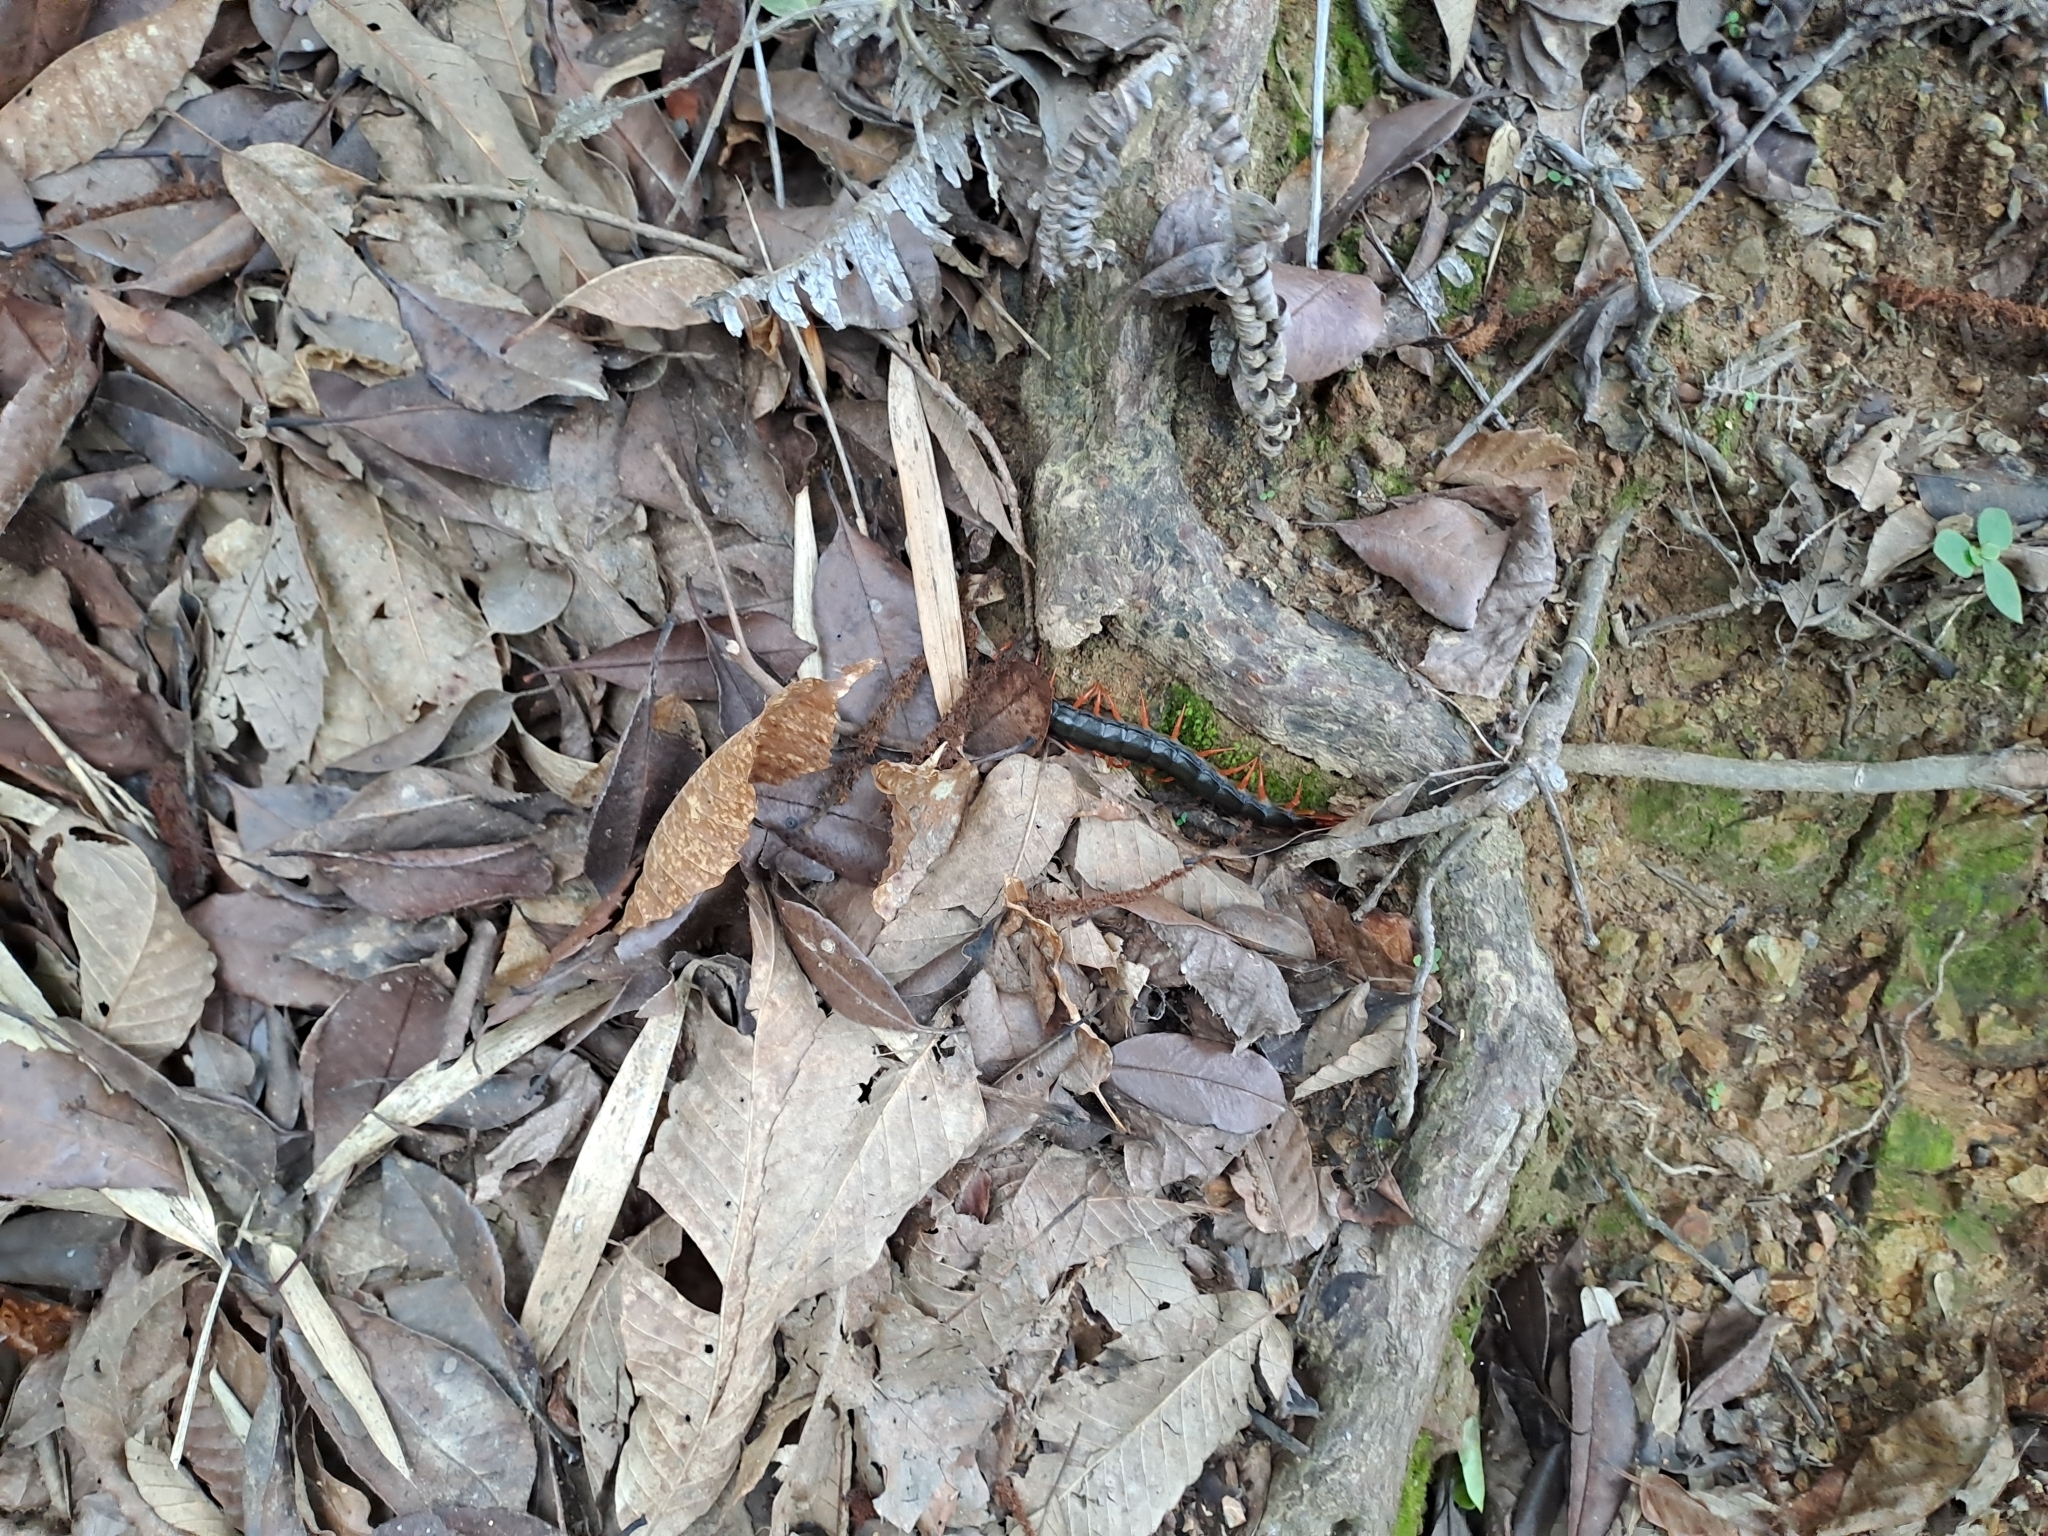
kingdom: Animalia
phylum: Arthropoda
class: Chilopoda
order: Scolopendromorpha
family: Scolopendridae
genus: Scolopendra
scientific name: Scolopendra mutilans
